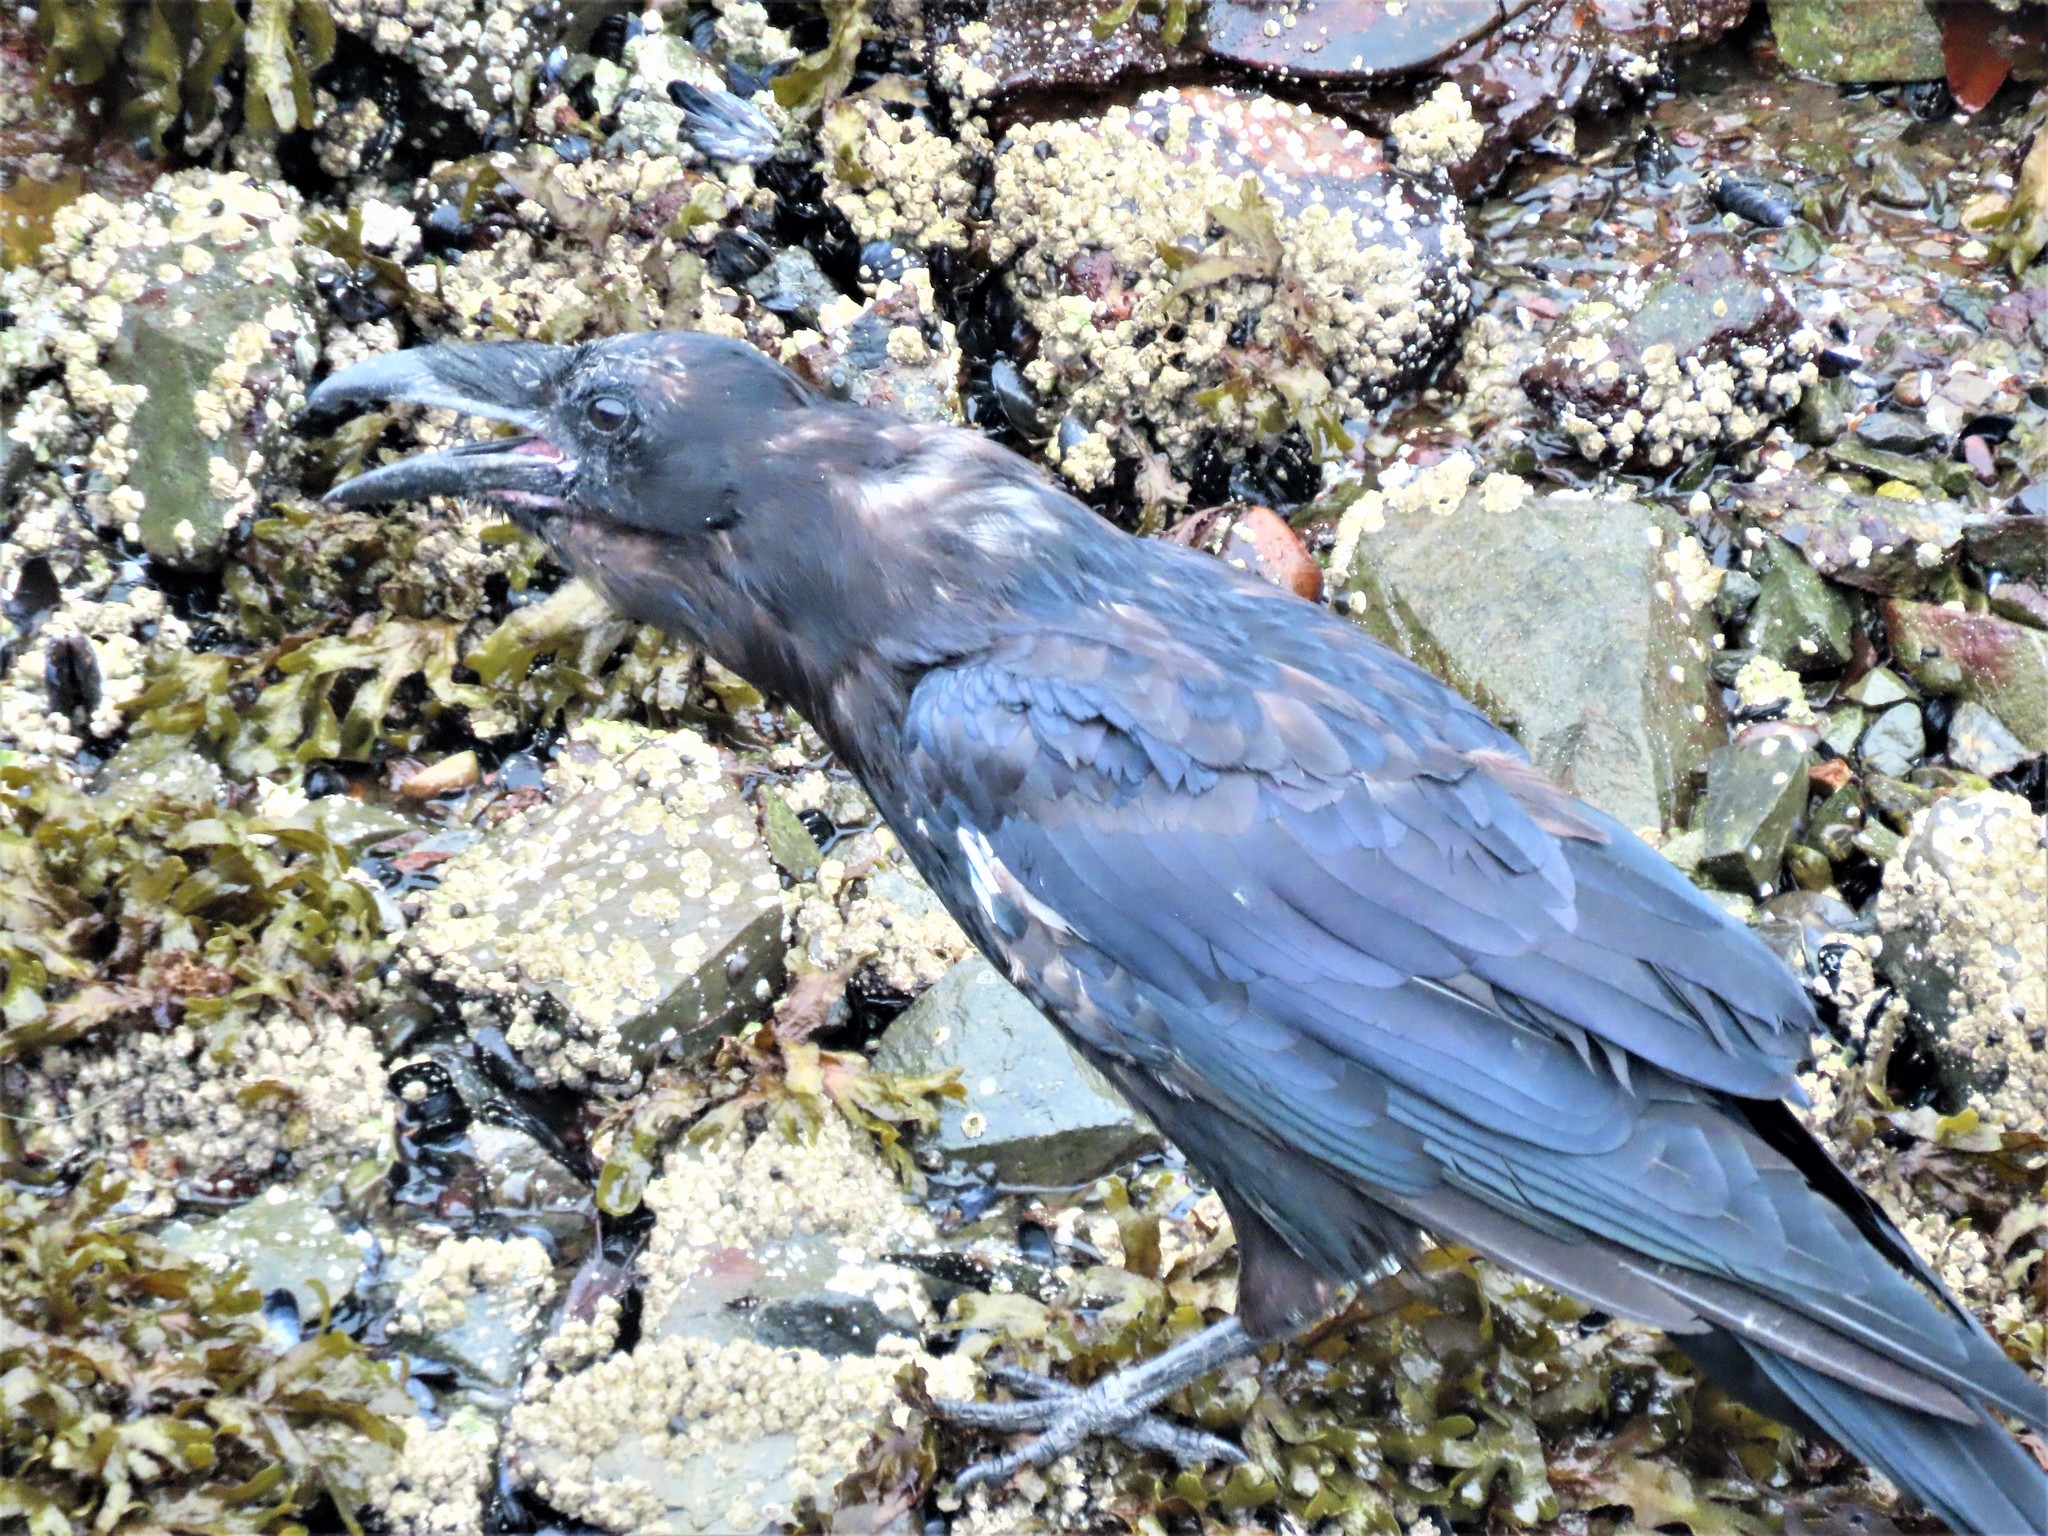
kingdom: Animalia
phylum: Chordata
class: Aves
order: Passeriformes
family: Corvidae
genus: Corvus
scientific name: Corvus corax
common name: Common raven
